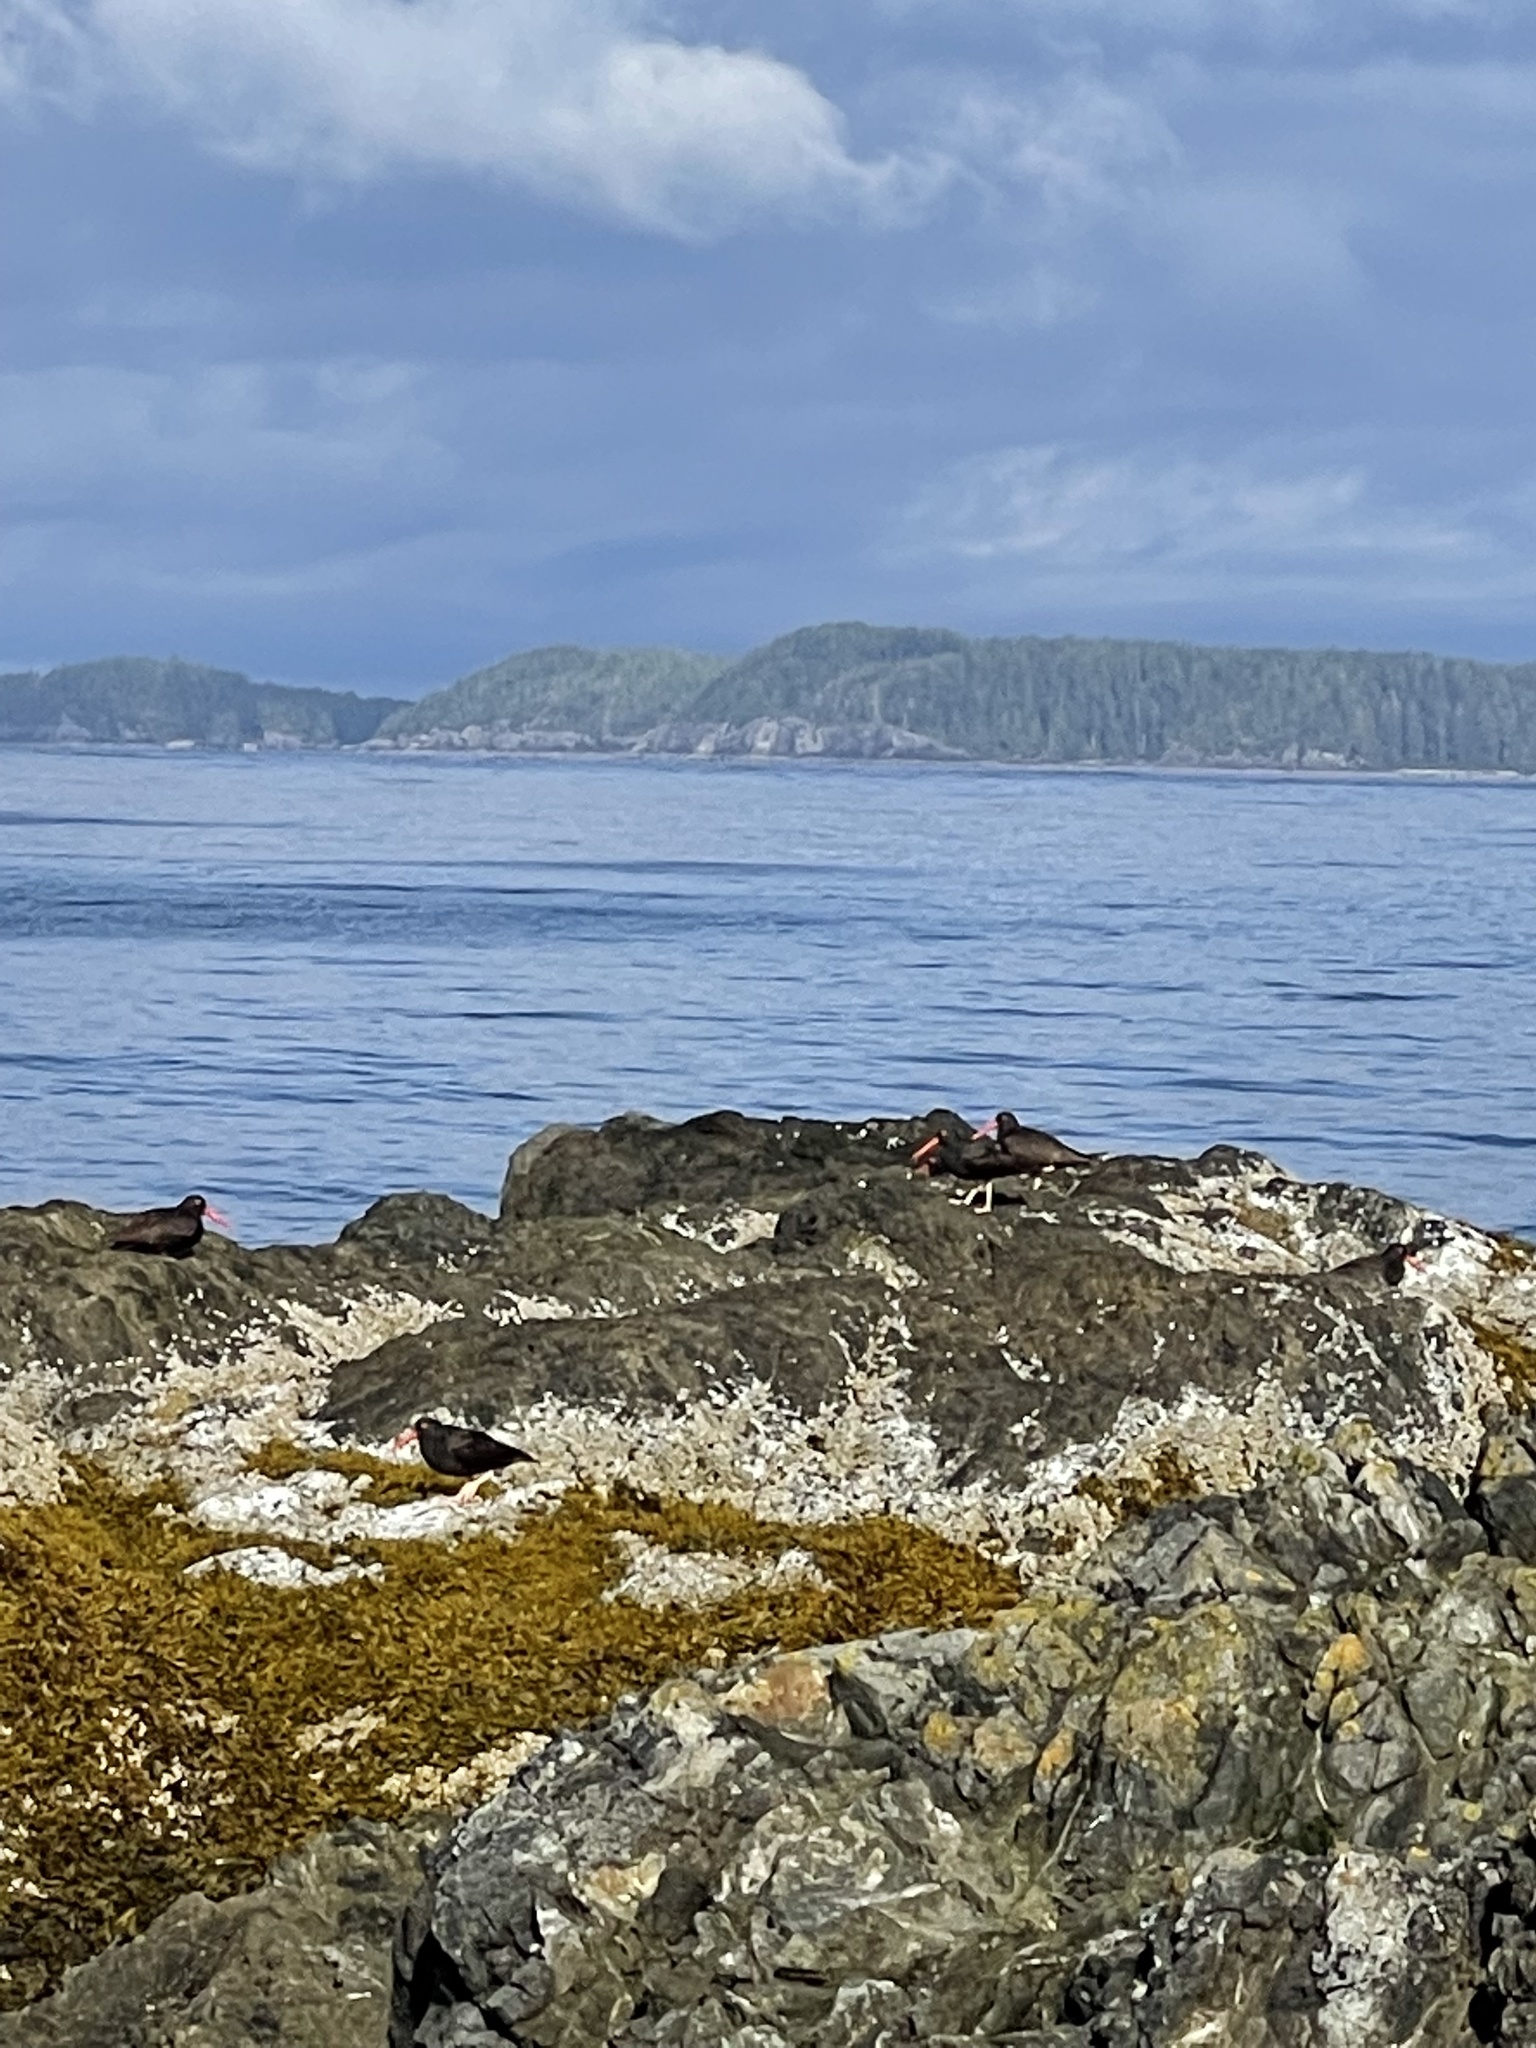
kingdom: Animalia
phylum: Chordata
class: Aves
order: Charadriiformes
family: Haematopodidae
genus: Haematopus
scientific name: Haematopus bachmani
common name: Black oystercatcher
